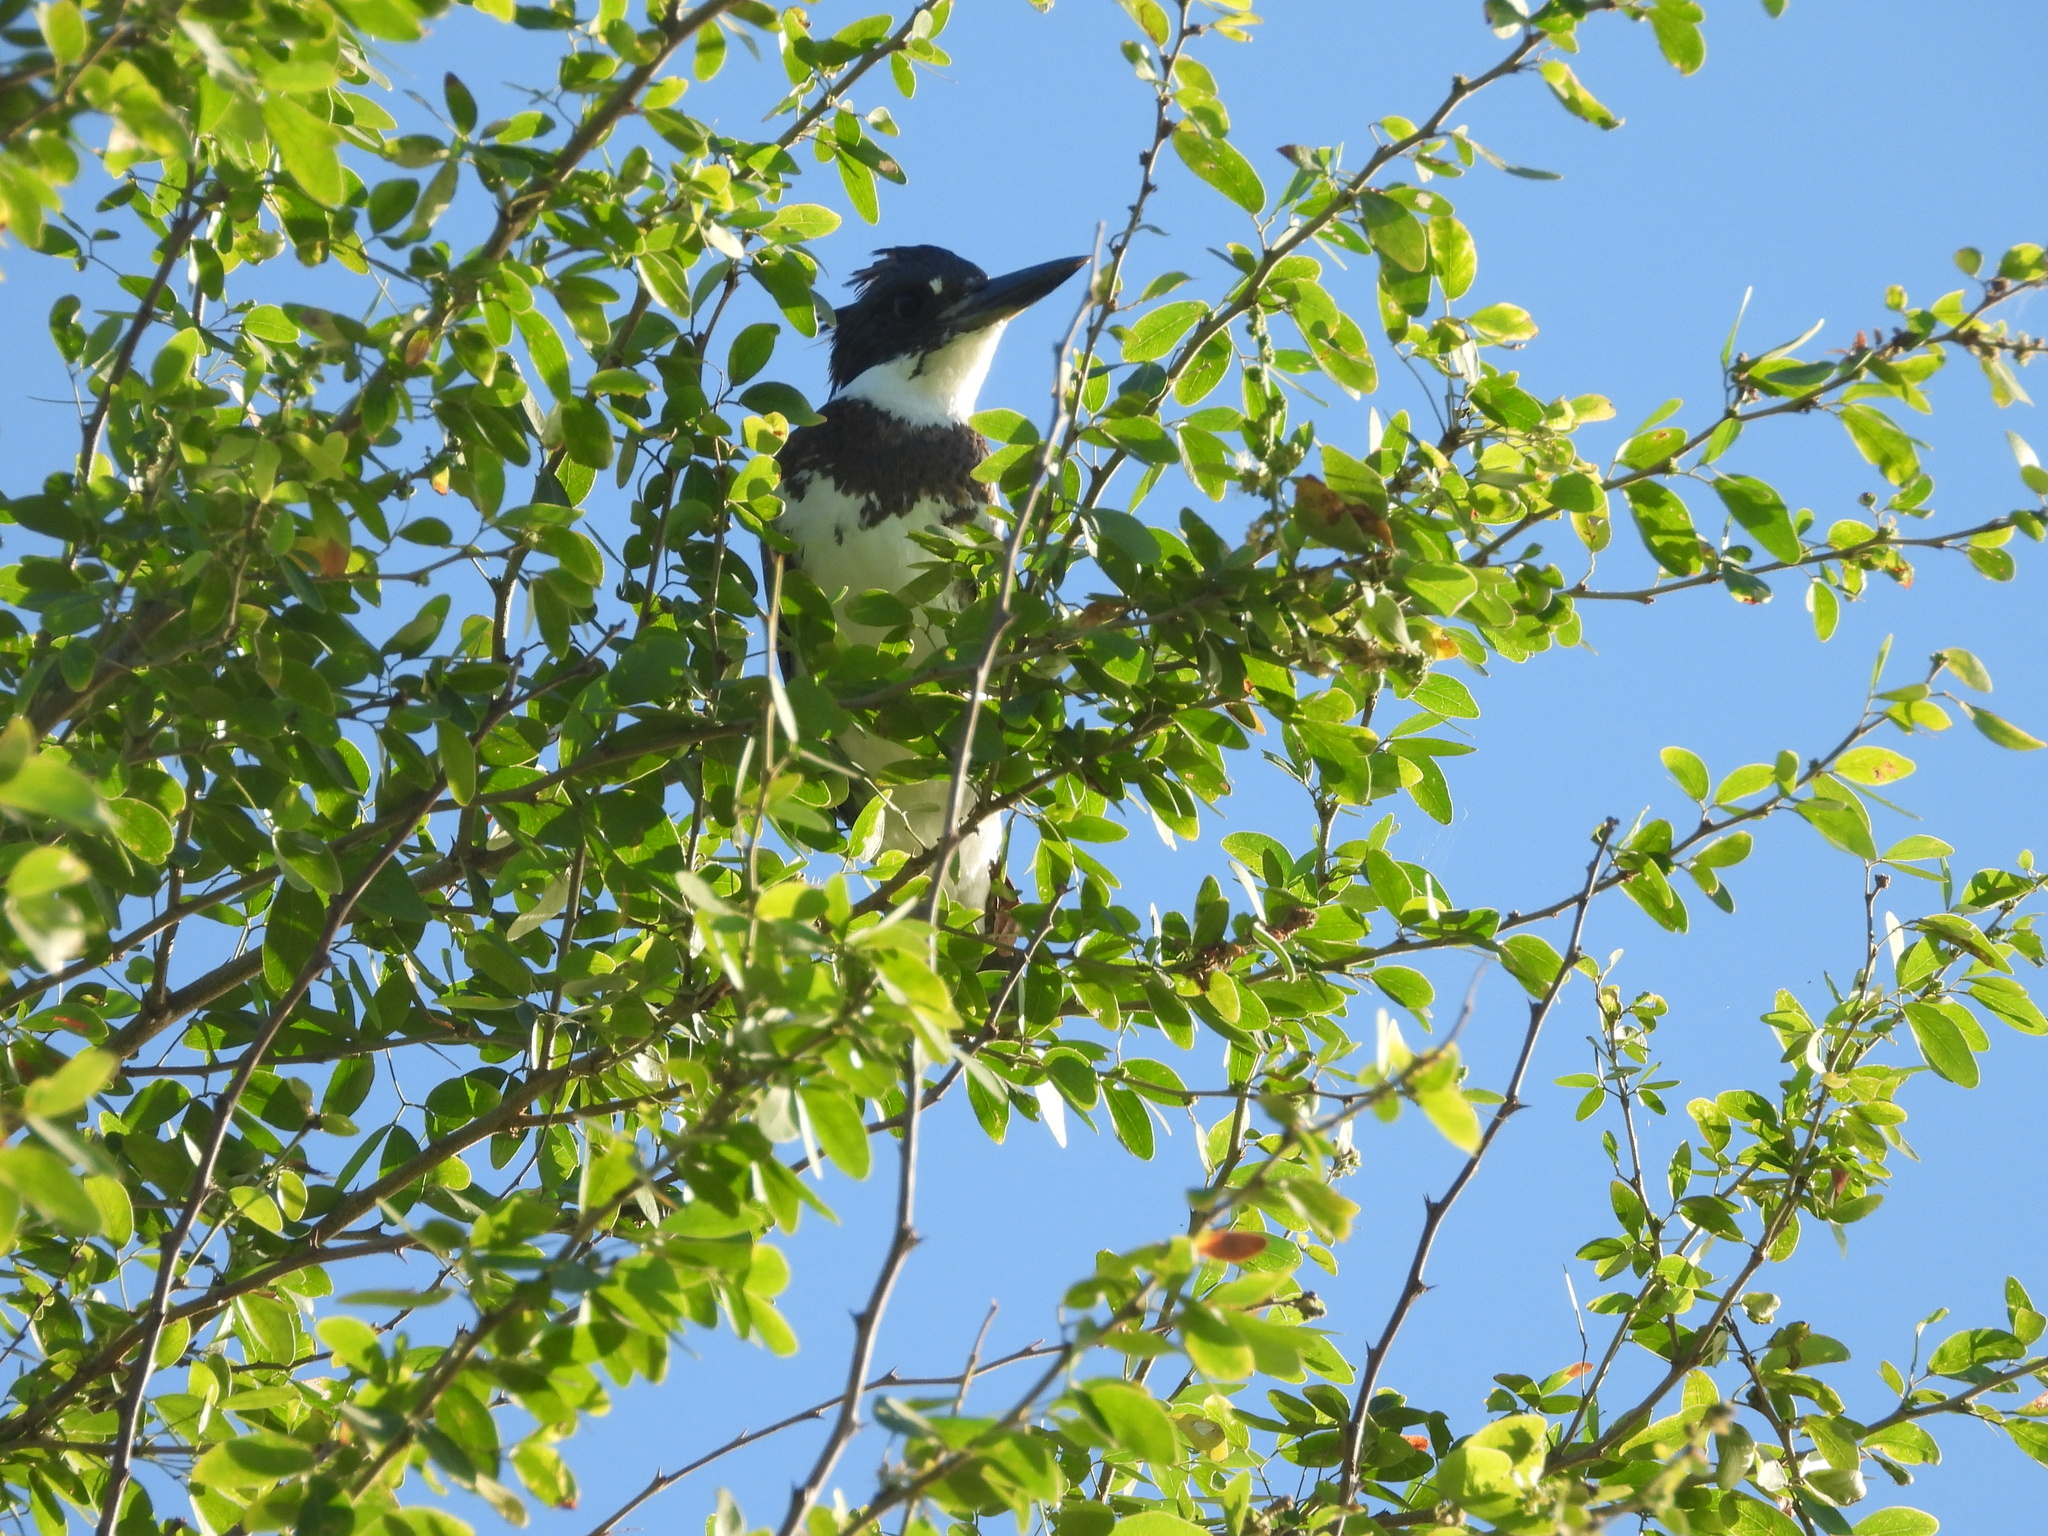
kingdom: Animalia
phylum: Chordata
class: Aves
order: Coraciiformes
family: Alcedinidae
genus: Megaceryle
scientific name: Megaceryle alcyon
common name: Belted kingfisher
